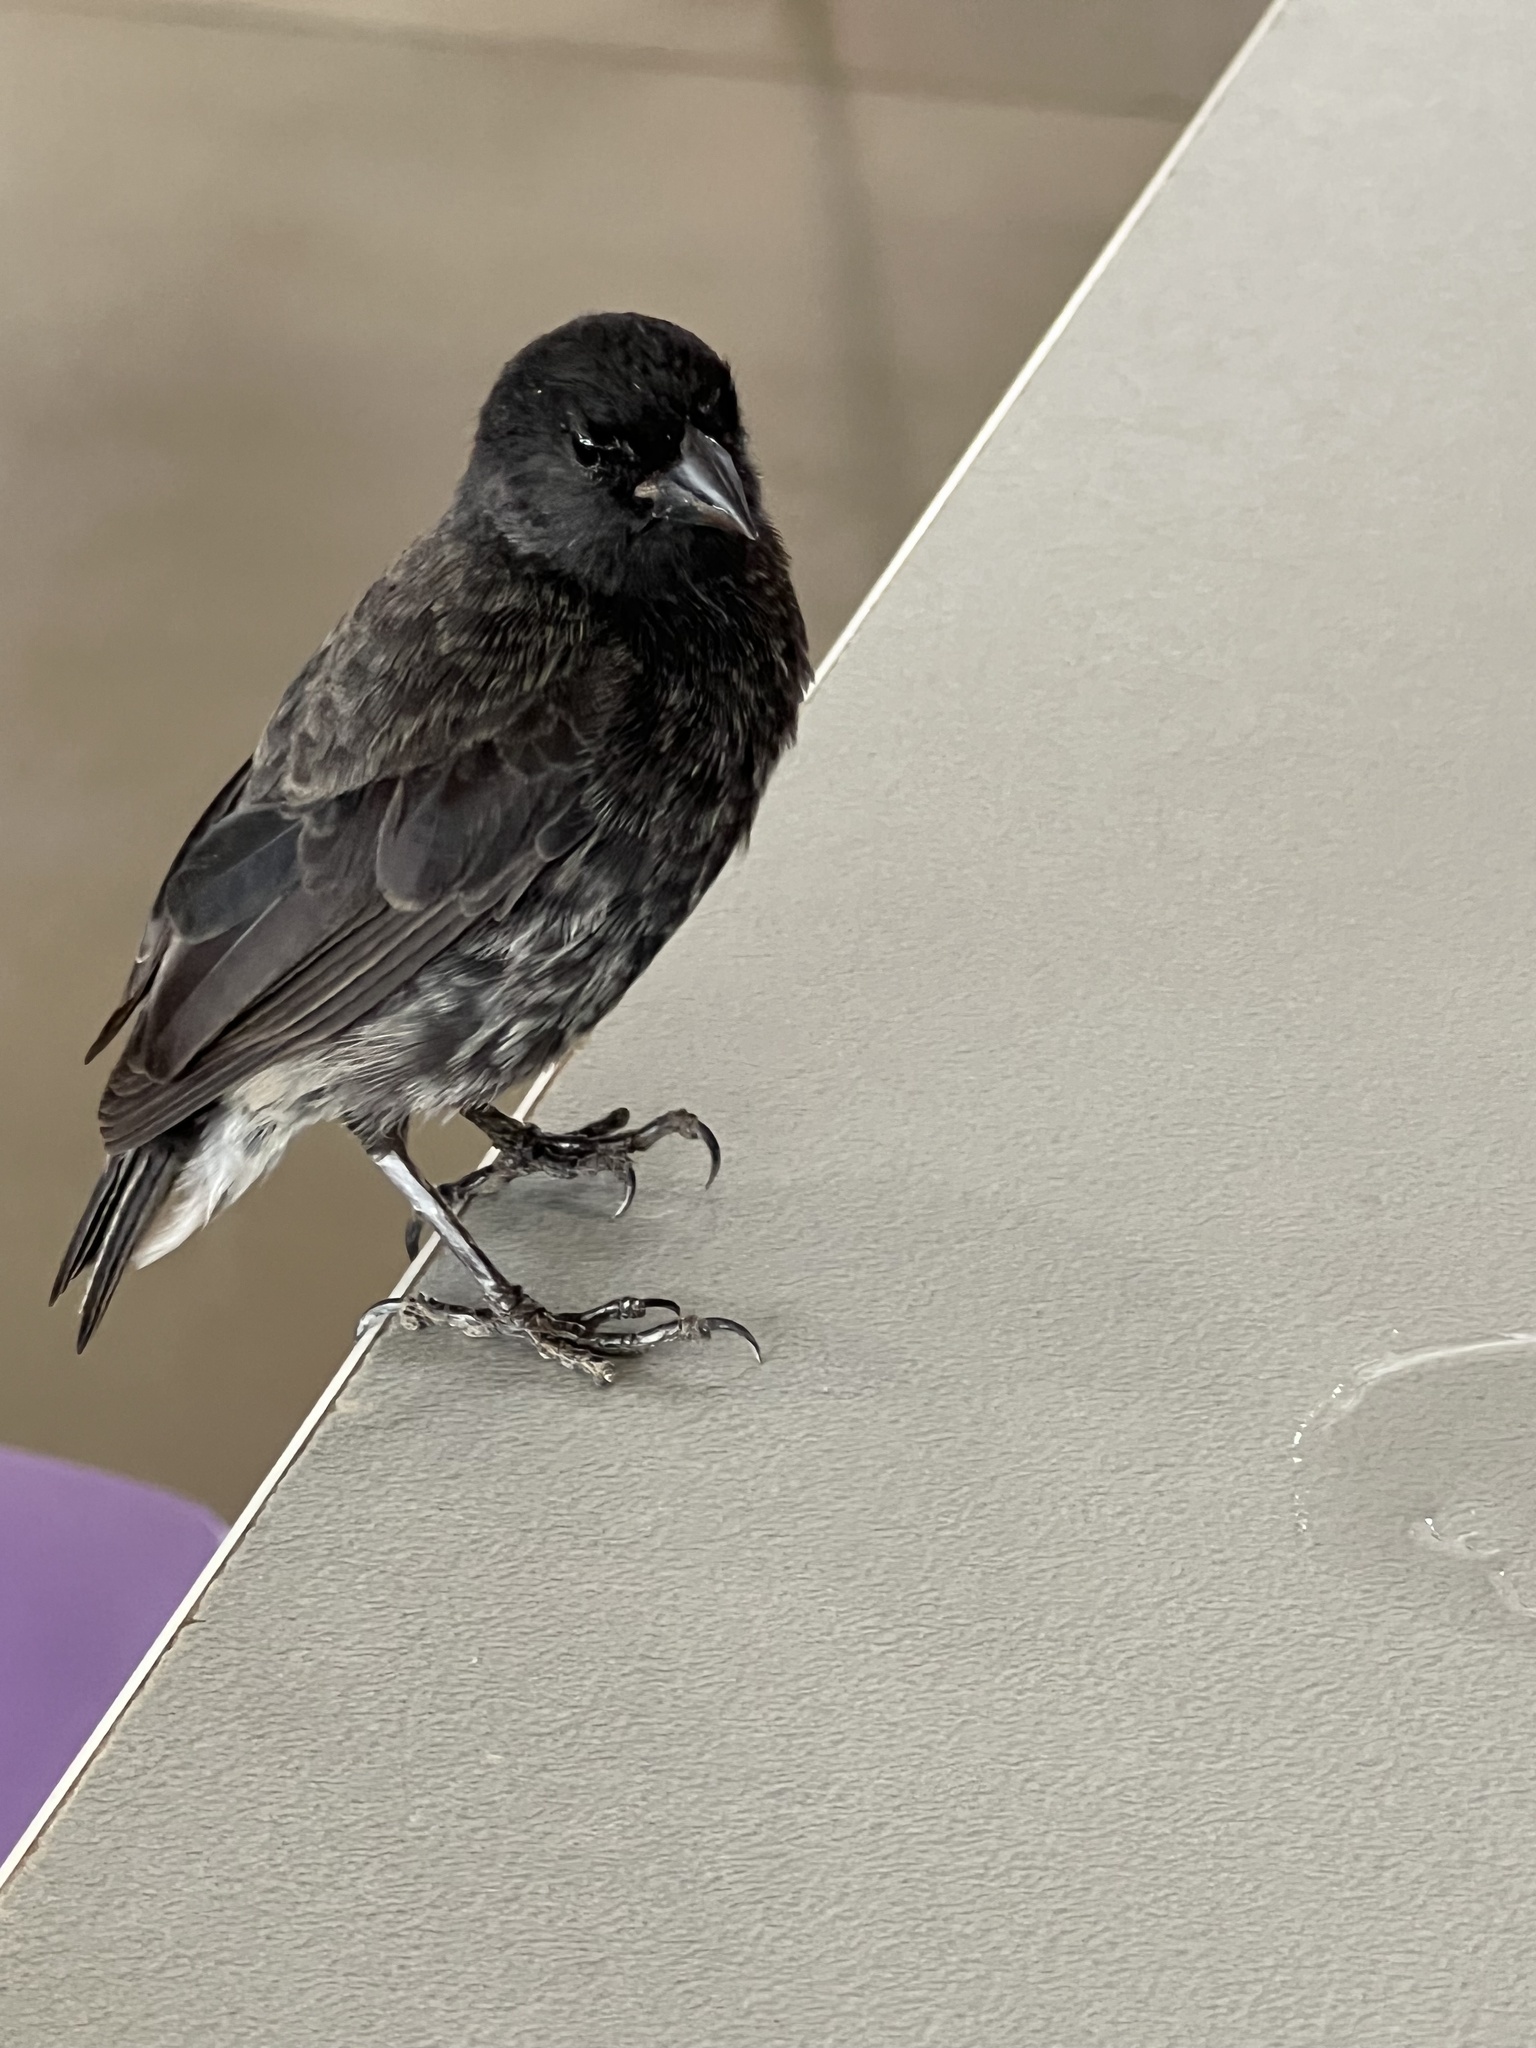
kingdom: Animalia
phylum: Chordata
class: Aves
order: Passeriformes
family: Thraupidae
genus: Geospiza
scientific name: Geospiza fuliginosa
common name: Small ground finch
